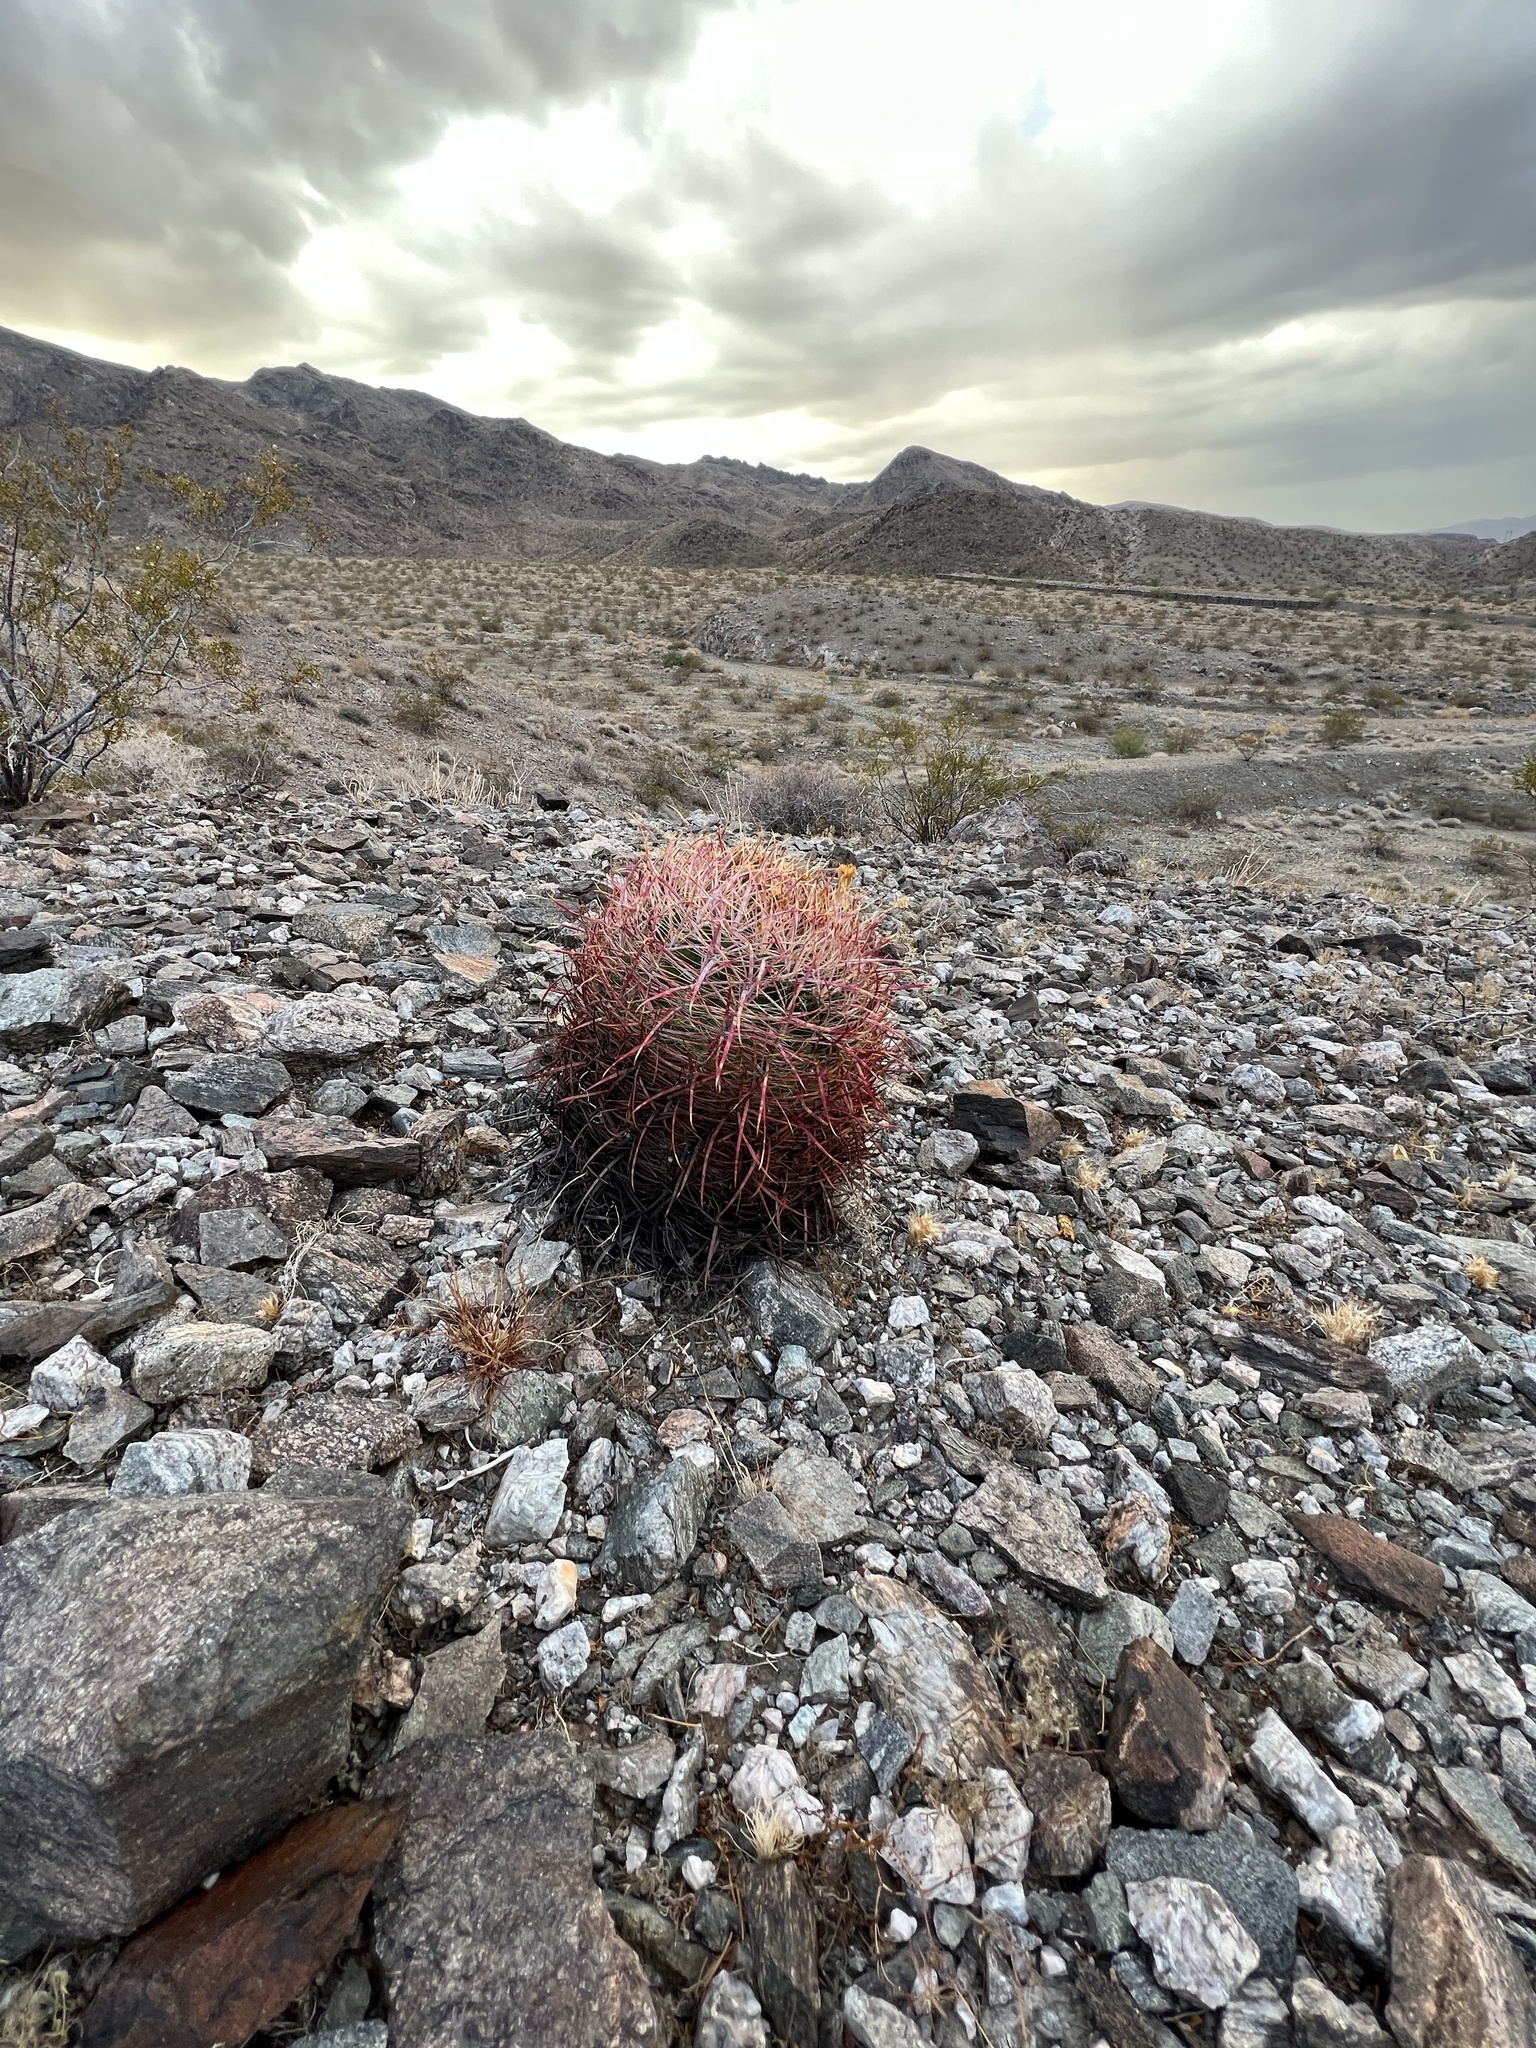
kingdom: Plantae
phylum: Tracheophyta
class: Magnoliopsida
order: Caryophyllales
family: Cactaceae
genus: Ferocactus
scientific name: Ferocactus cylindraceus
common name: California barrel cactus
